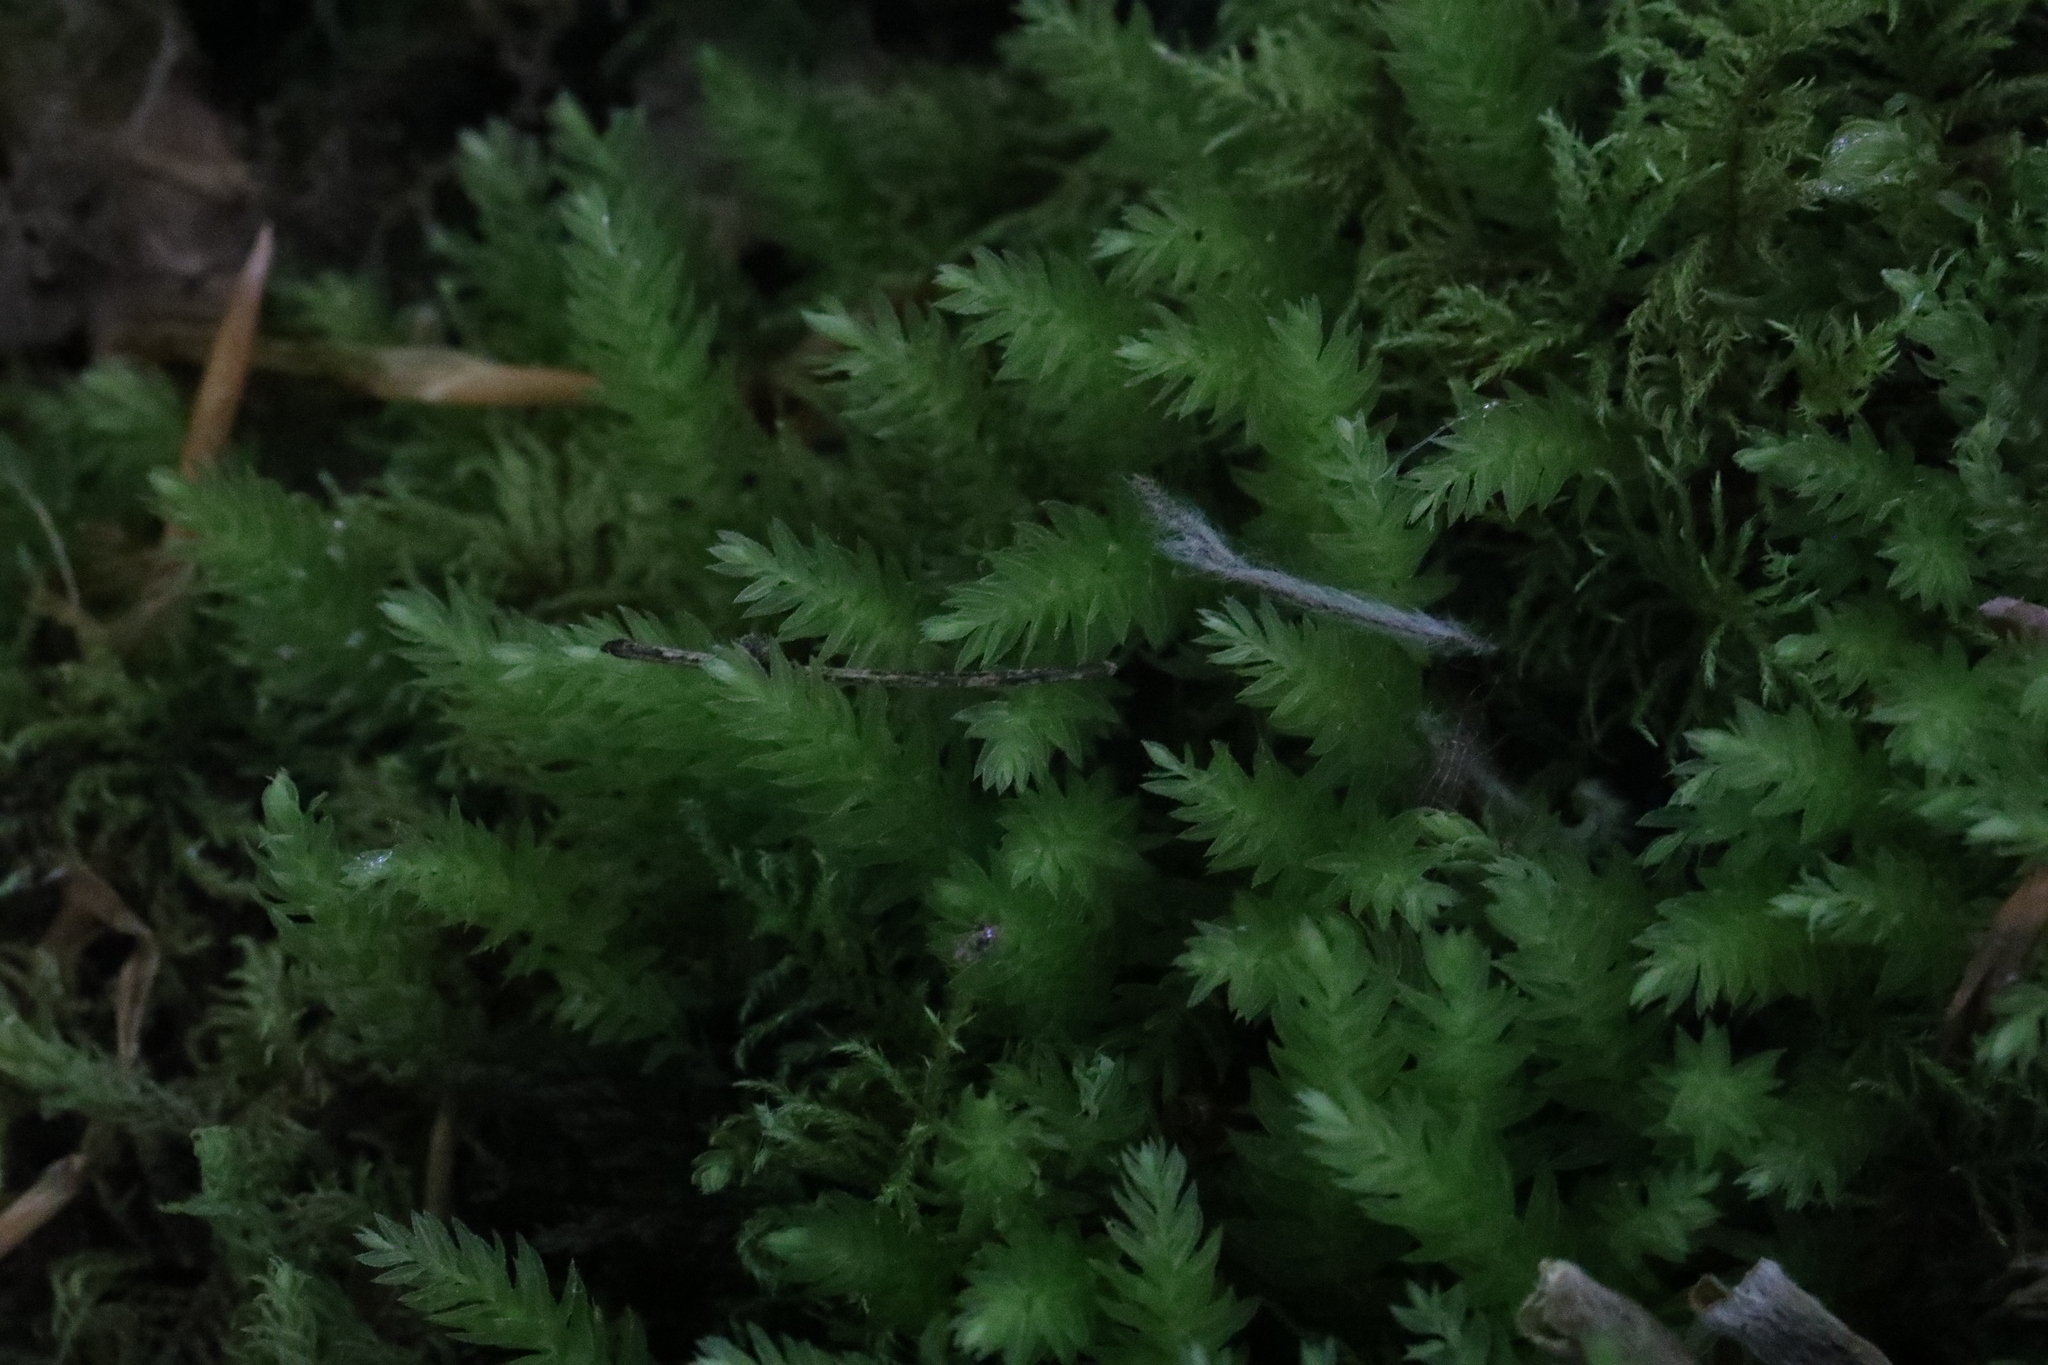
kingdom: Plantae
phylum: Bryophyta
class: Bryopsida
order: Bryales
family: Mniaceae
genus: Mnium
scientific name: Mnium hornum
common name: Swan's-neck leafy moss
